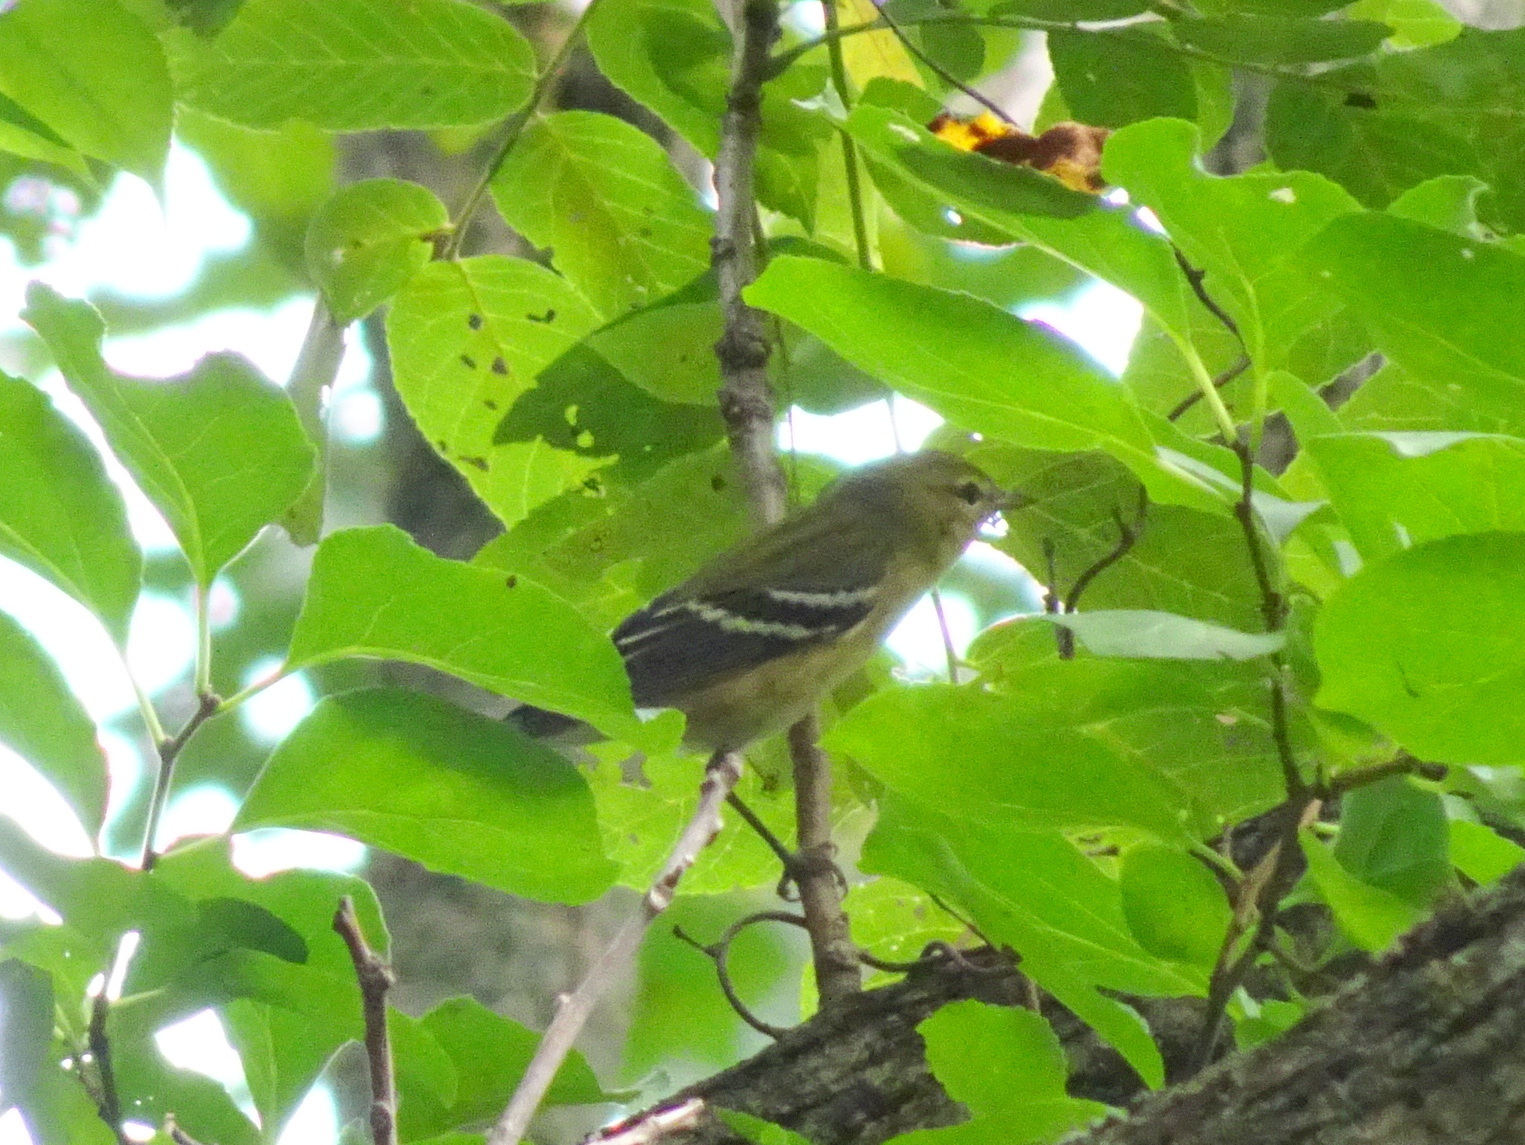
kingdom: Animalia
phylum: Chordata
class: Aves
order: Passeriformes
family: Parulidae
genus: Setophaga
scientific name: Setophaga castanea
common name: Bay-breasted warbler
